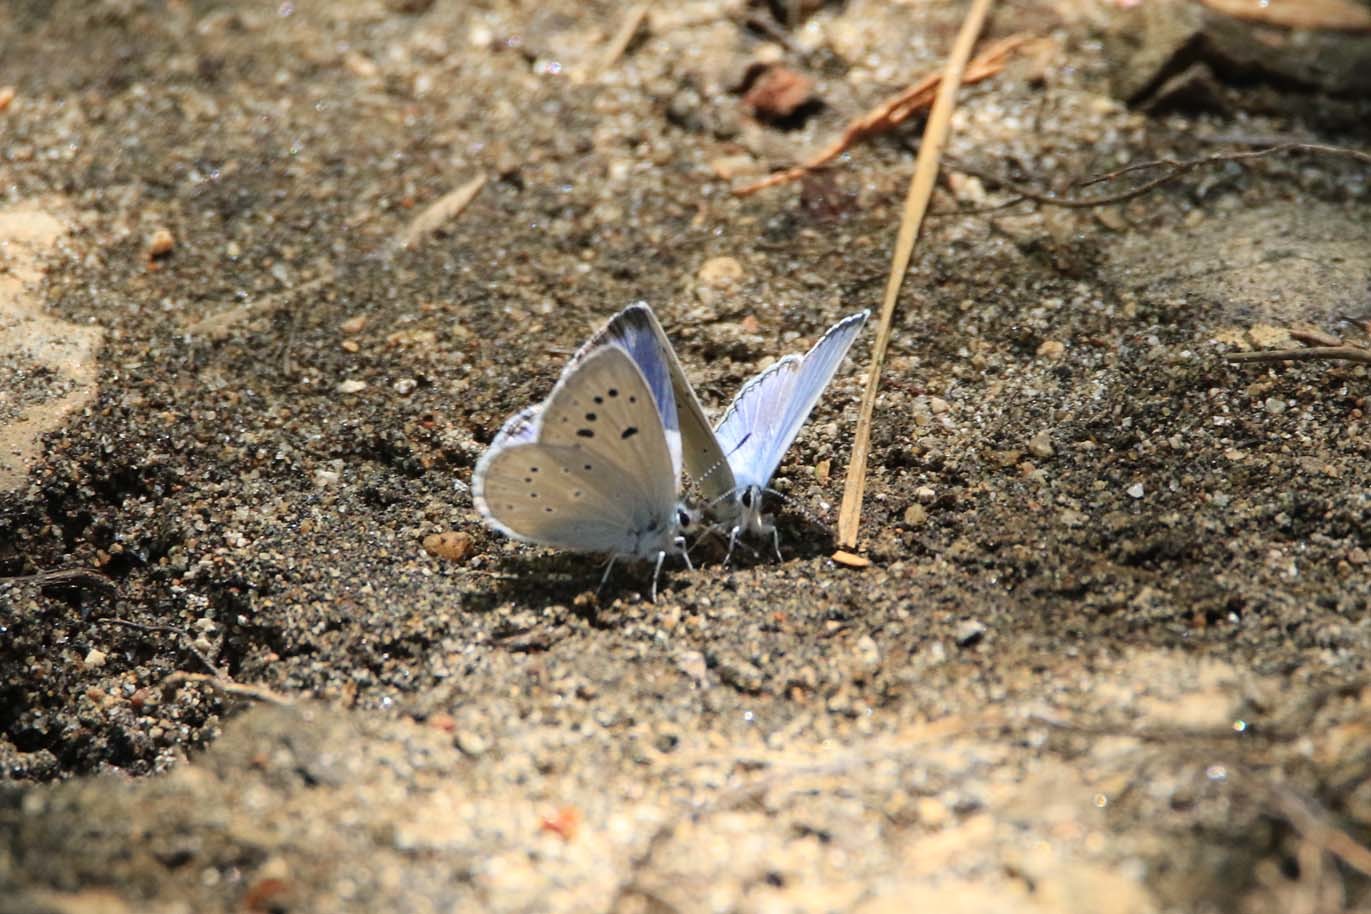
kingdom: Animalia
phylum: Arthropoda
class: Insecta
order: Lepidoptera
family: Lycaenidae
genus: Icaricia
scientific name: Icaricia icarioides
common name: Boisduval's blue
